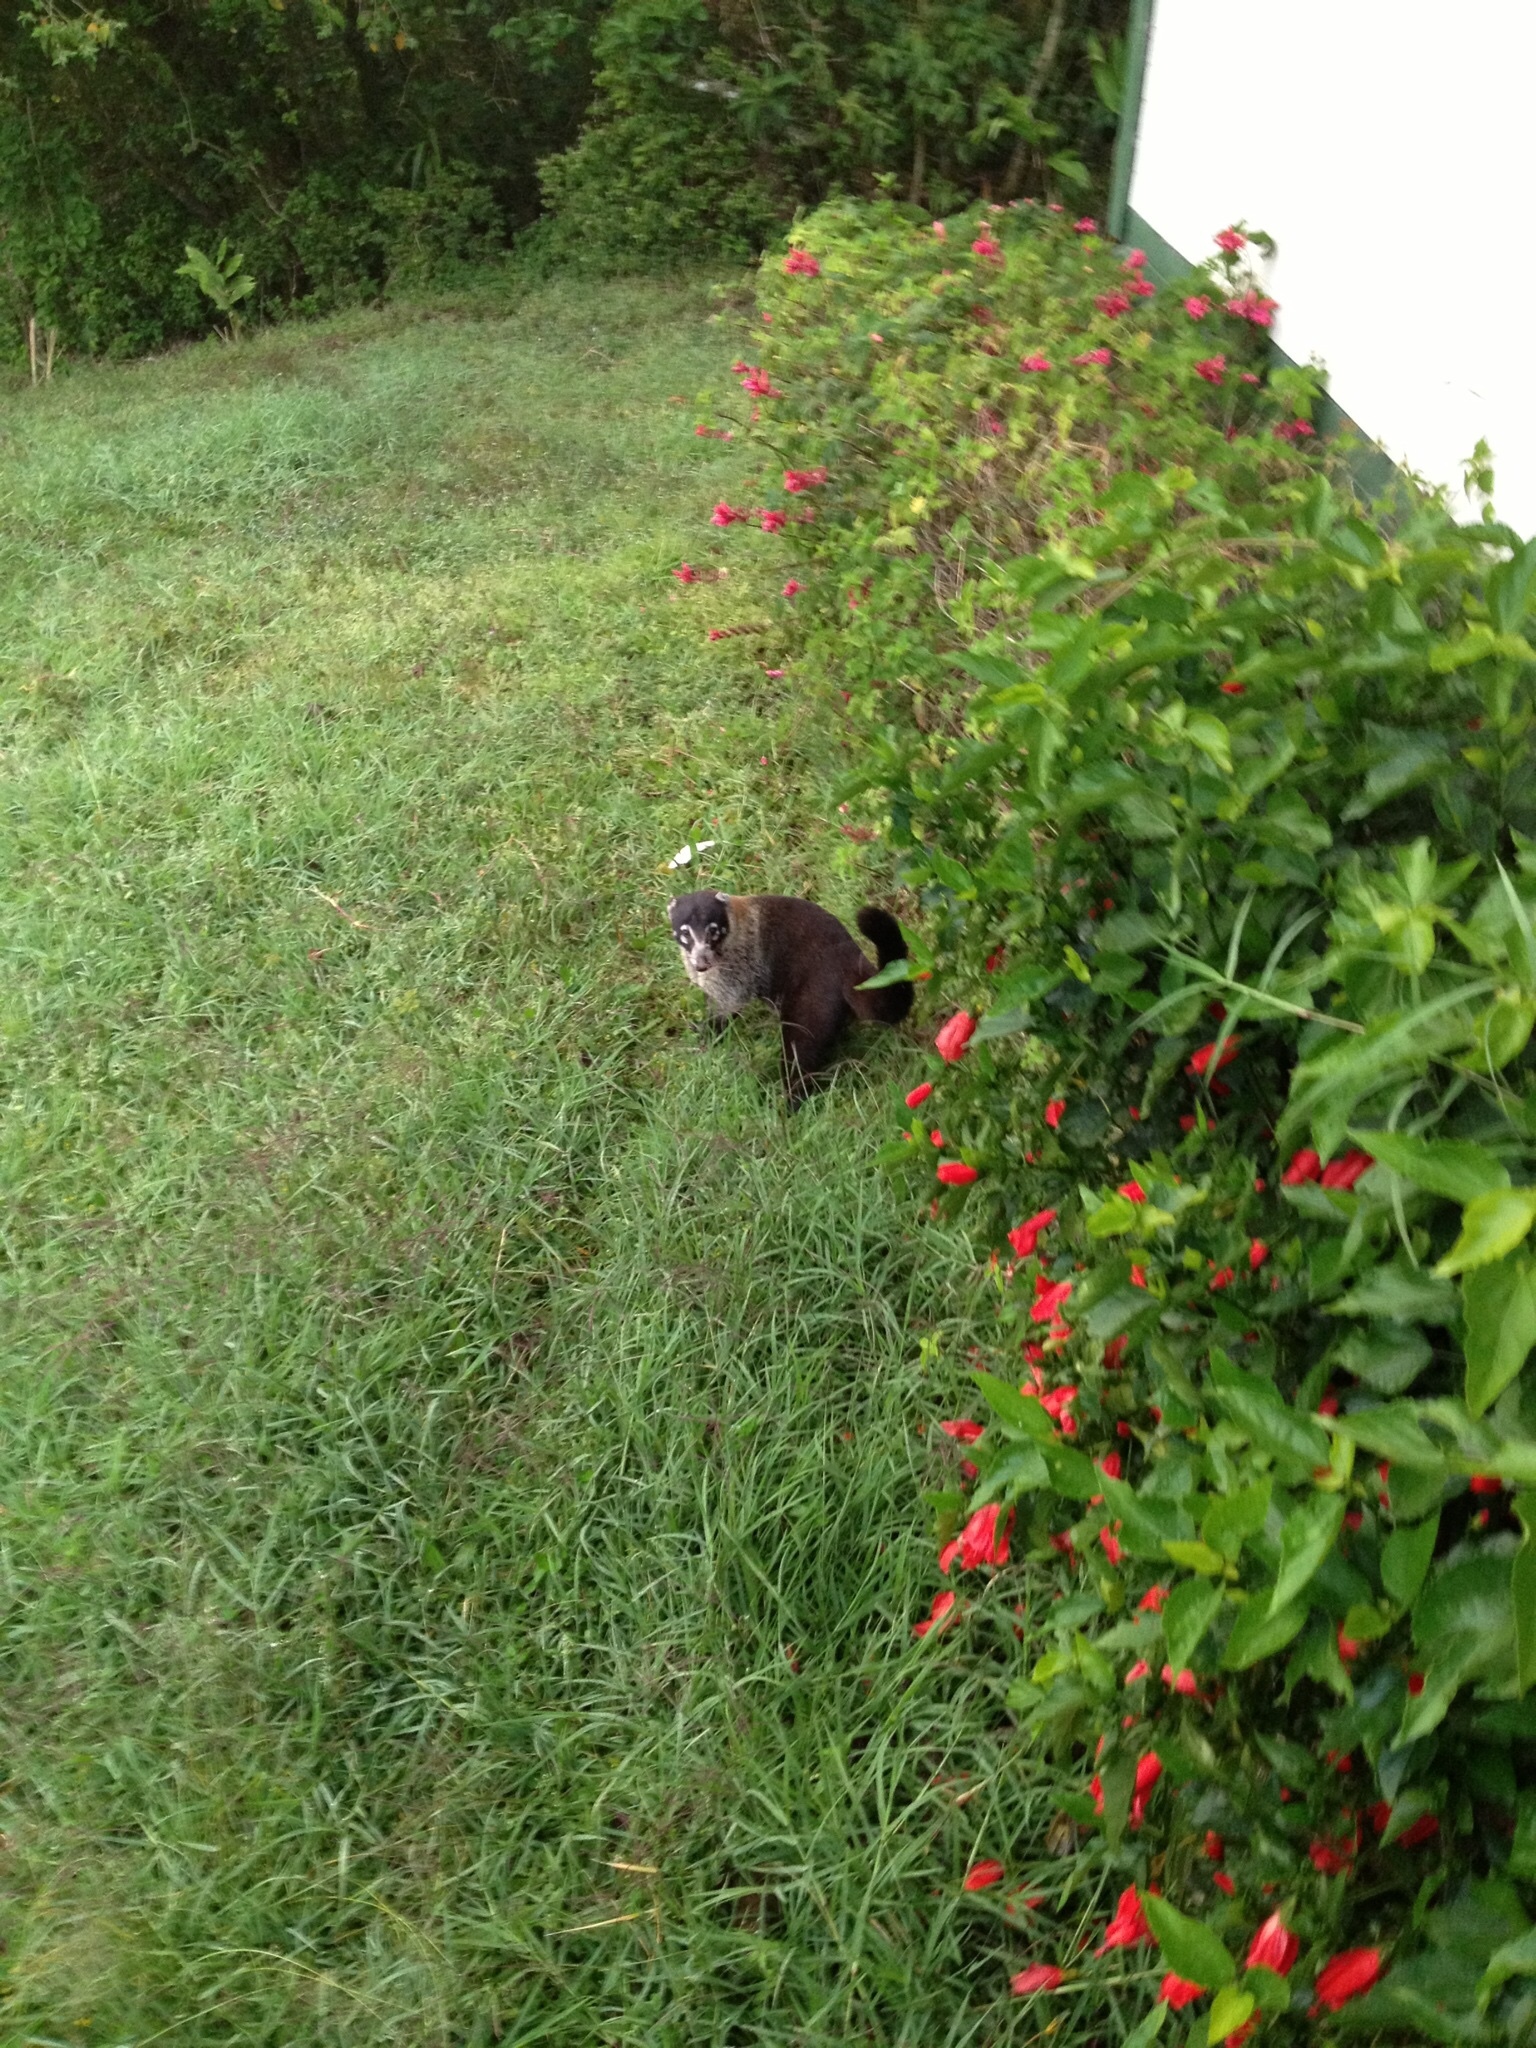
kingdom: Animalia
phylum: Chordata
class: Mammalia
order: Carnivora
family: Procyonidae
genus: Nasua
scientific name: Nasua narica
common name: White-nosed coati
